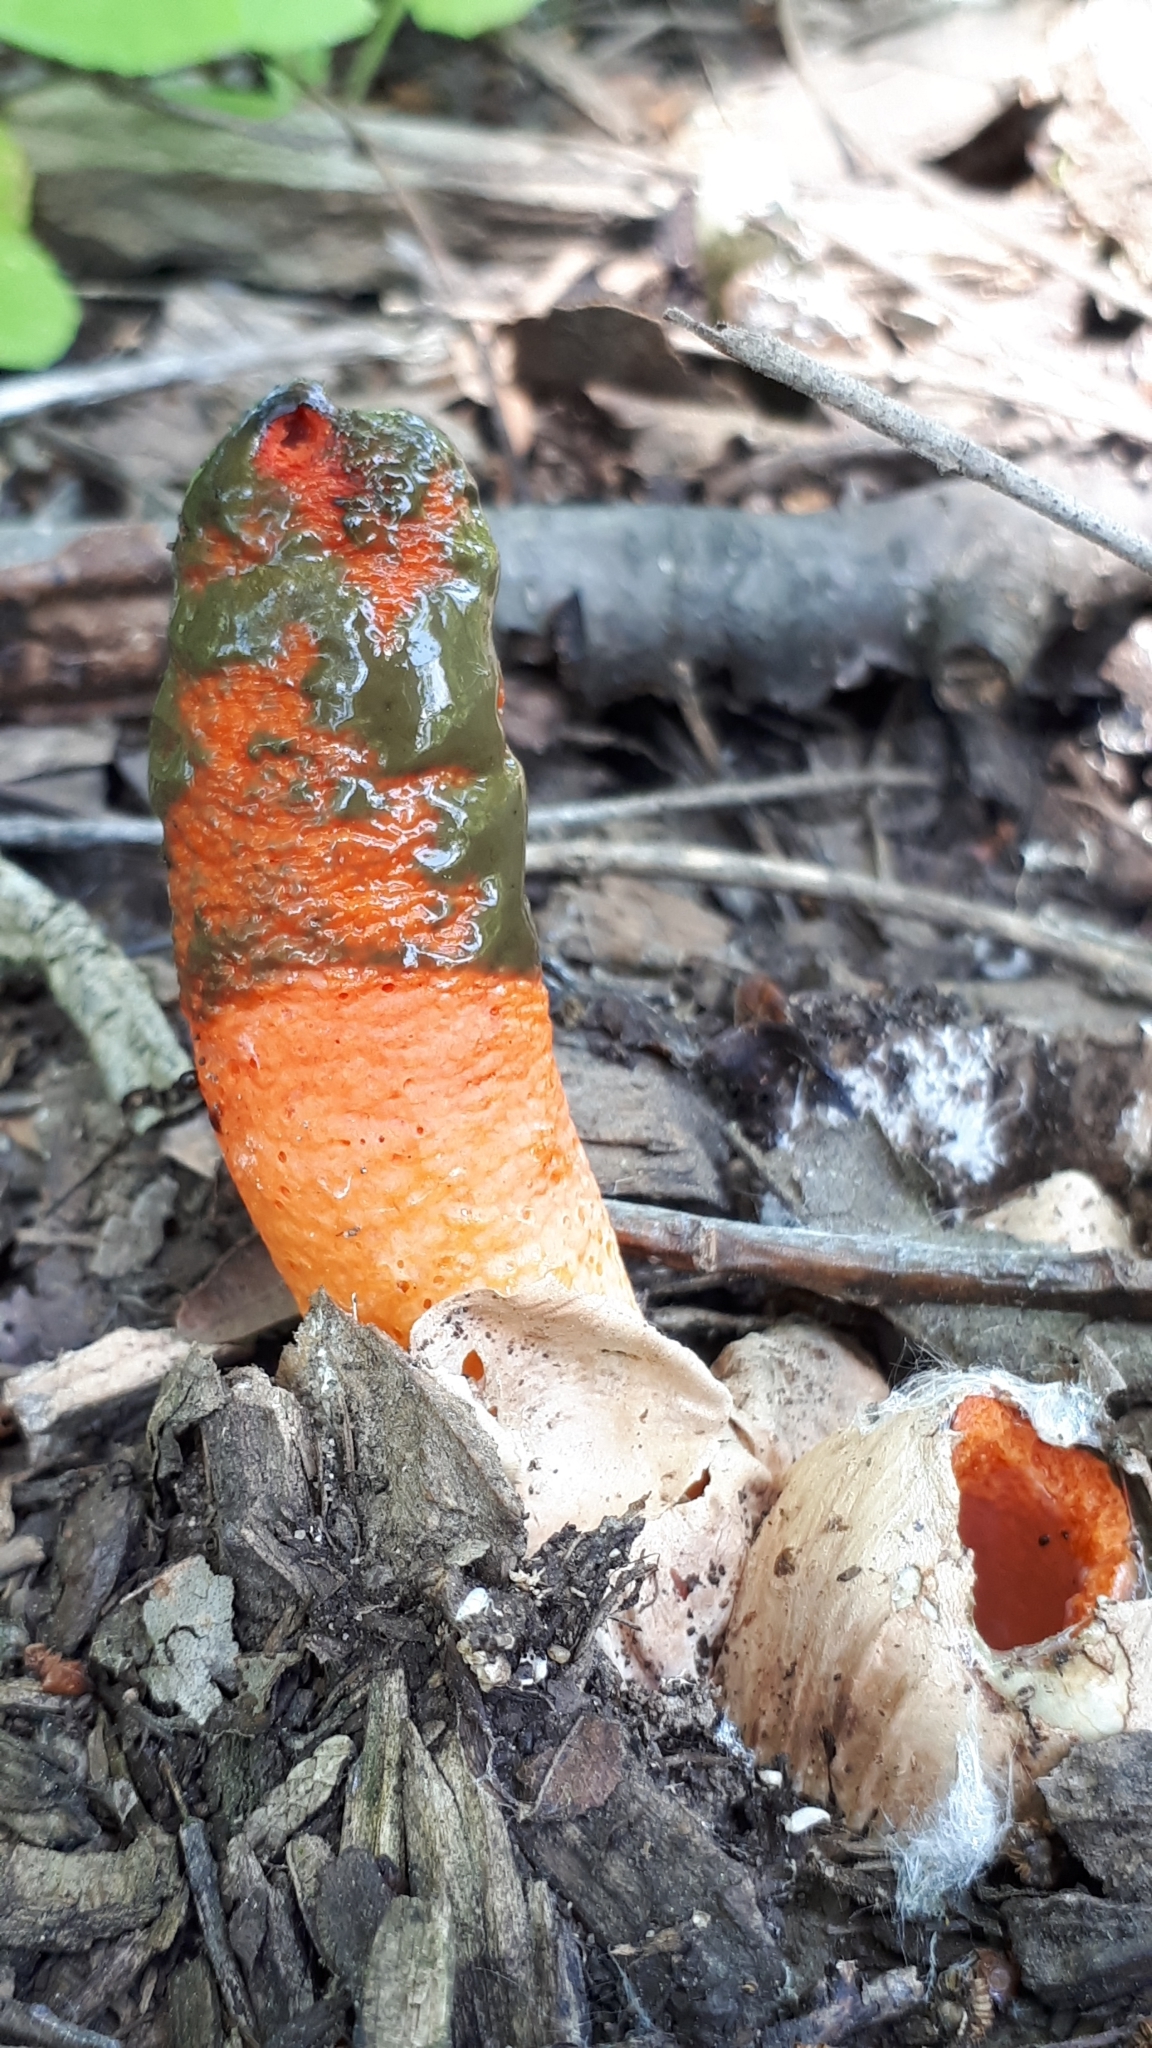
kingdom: Fungi
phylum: Basidiomycota
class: Agaricomycetes
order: Phallales
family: Phallaceae
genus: Mutinus
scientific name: Mutinus elegans
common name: Devil's dipstick
